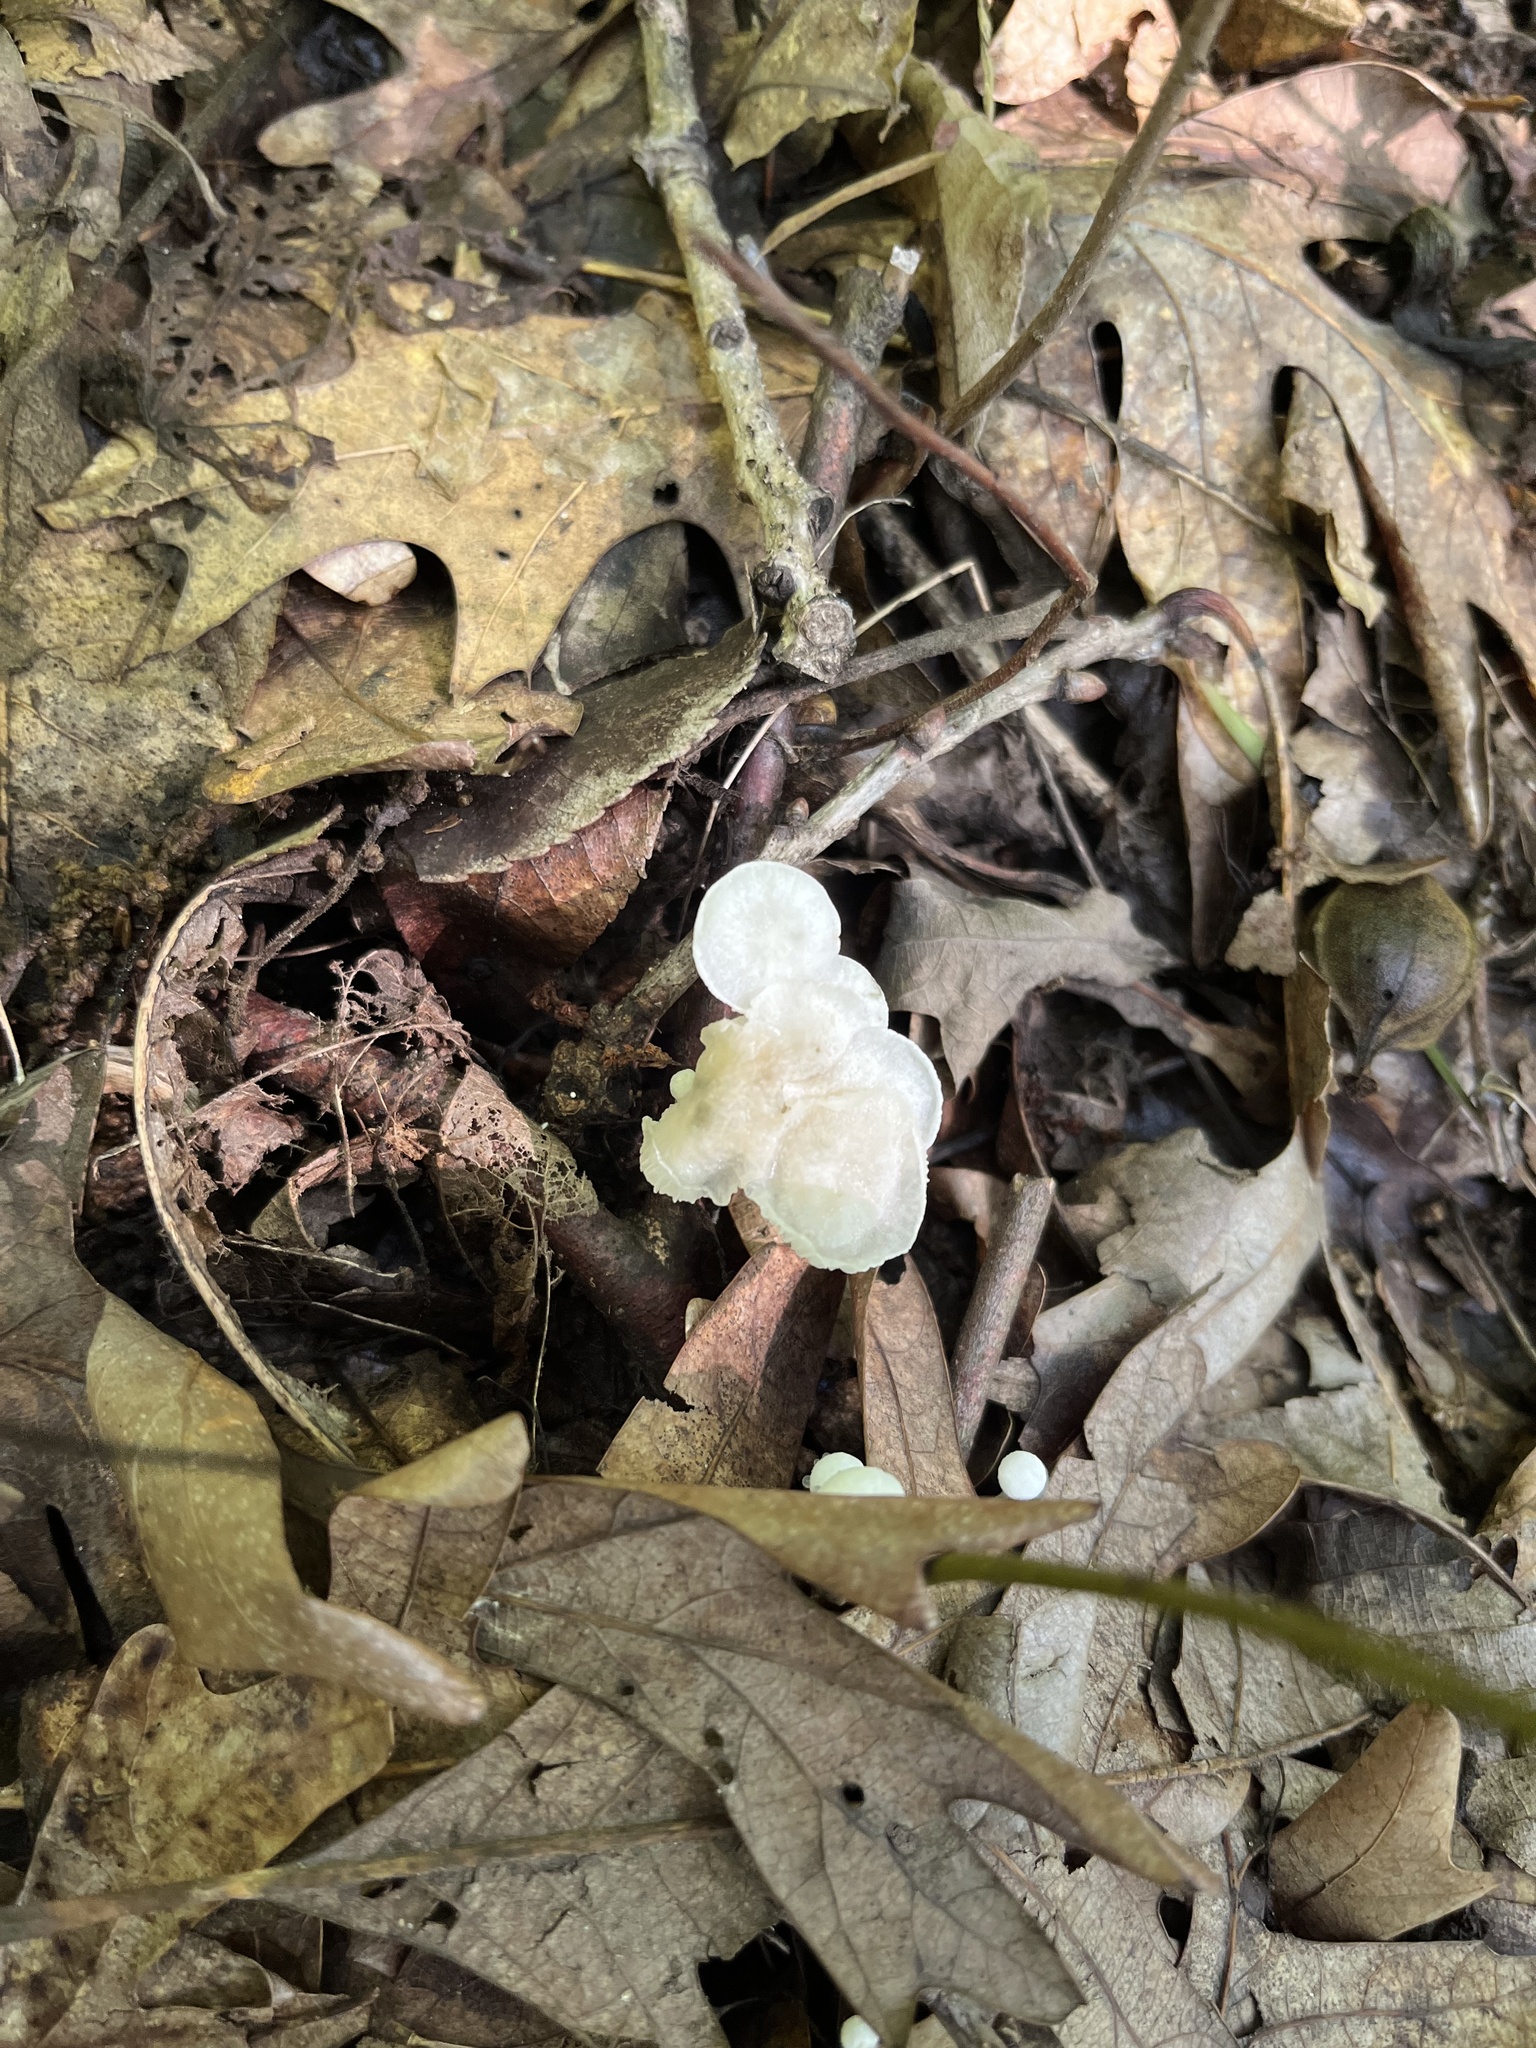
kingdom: Fungi
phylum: Basidiomycota
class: Agaricomycetes
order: Agaricales
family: Marasmiaceae
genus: Tetrapyrgos
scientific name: Tetrapyrgos nigripes
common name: Black-stalked marasmius
